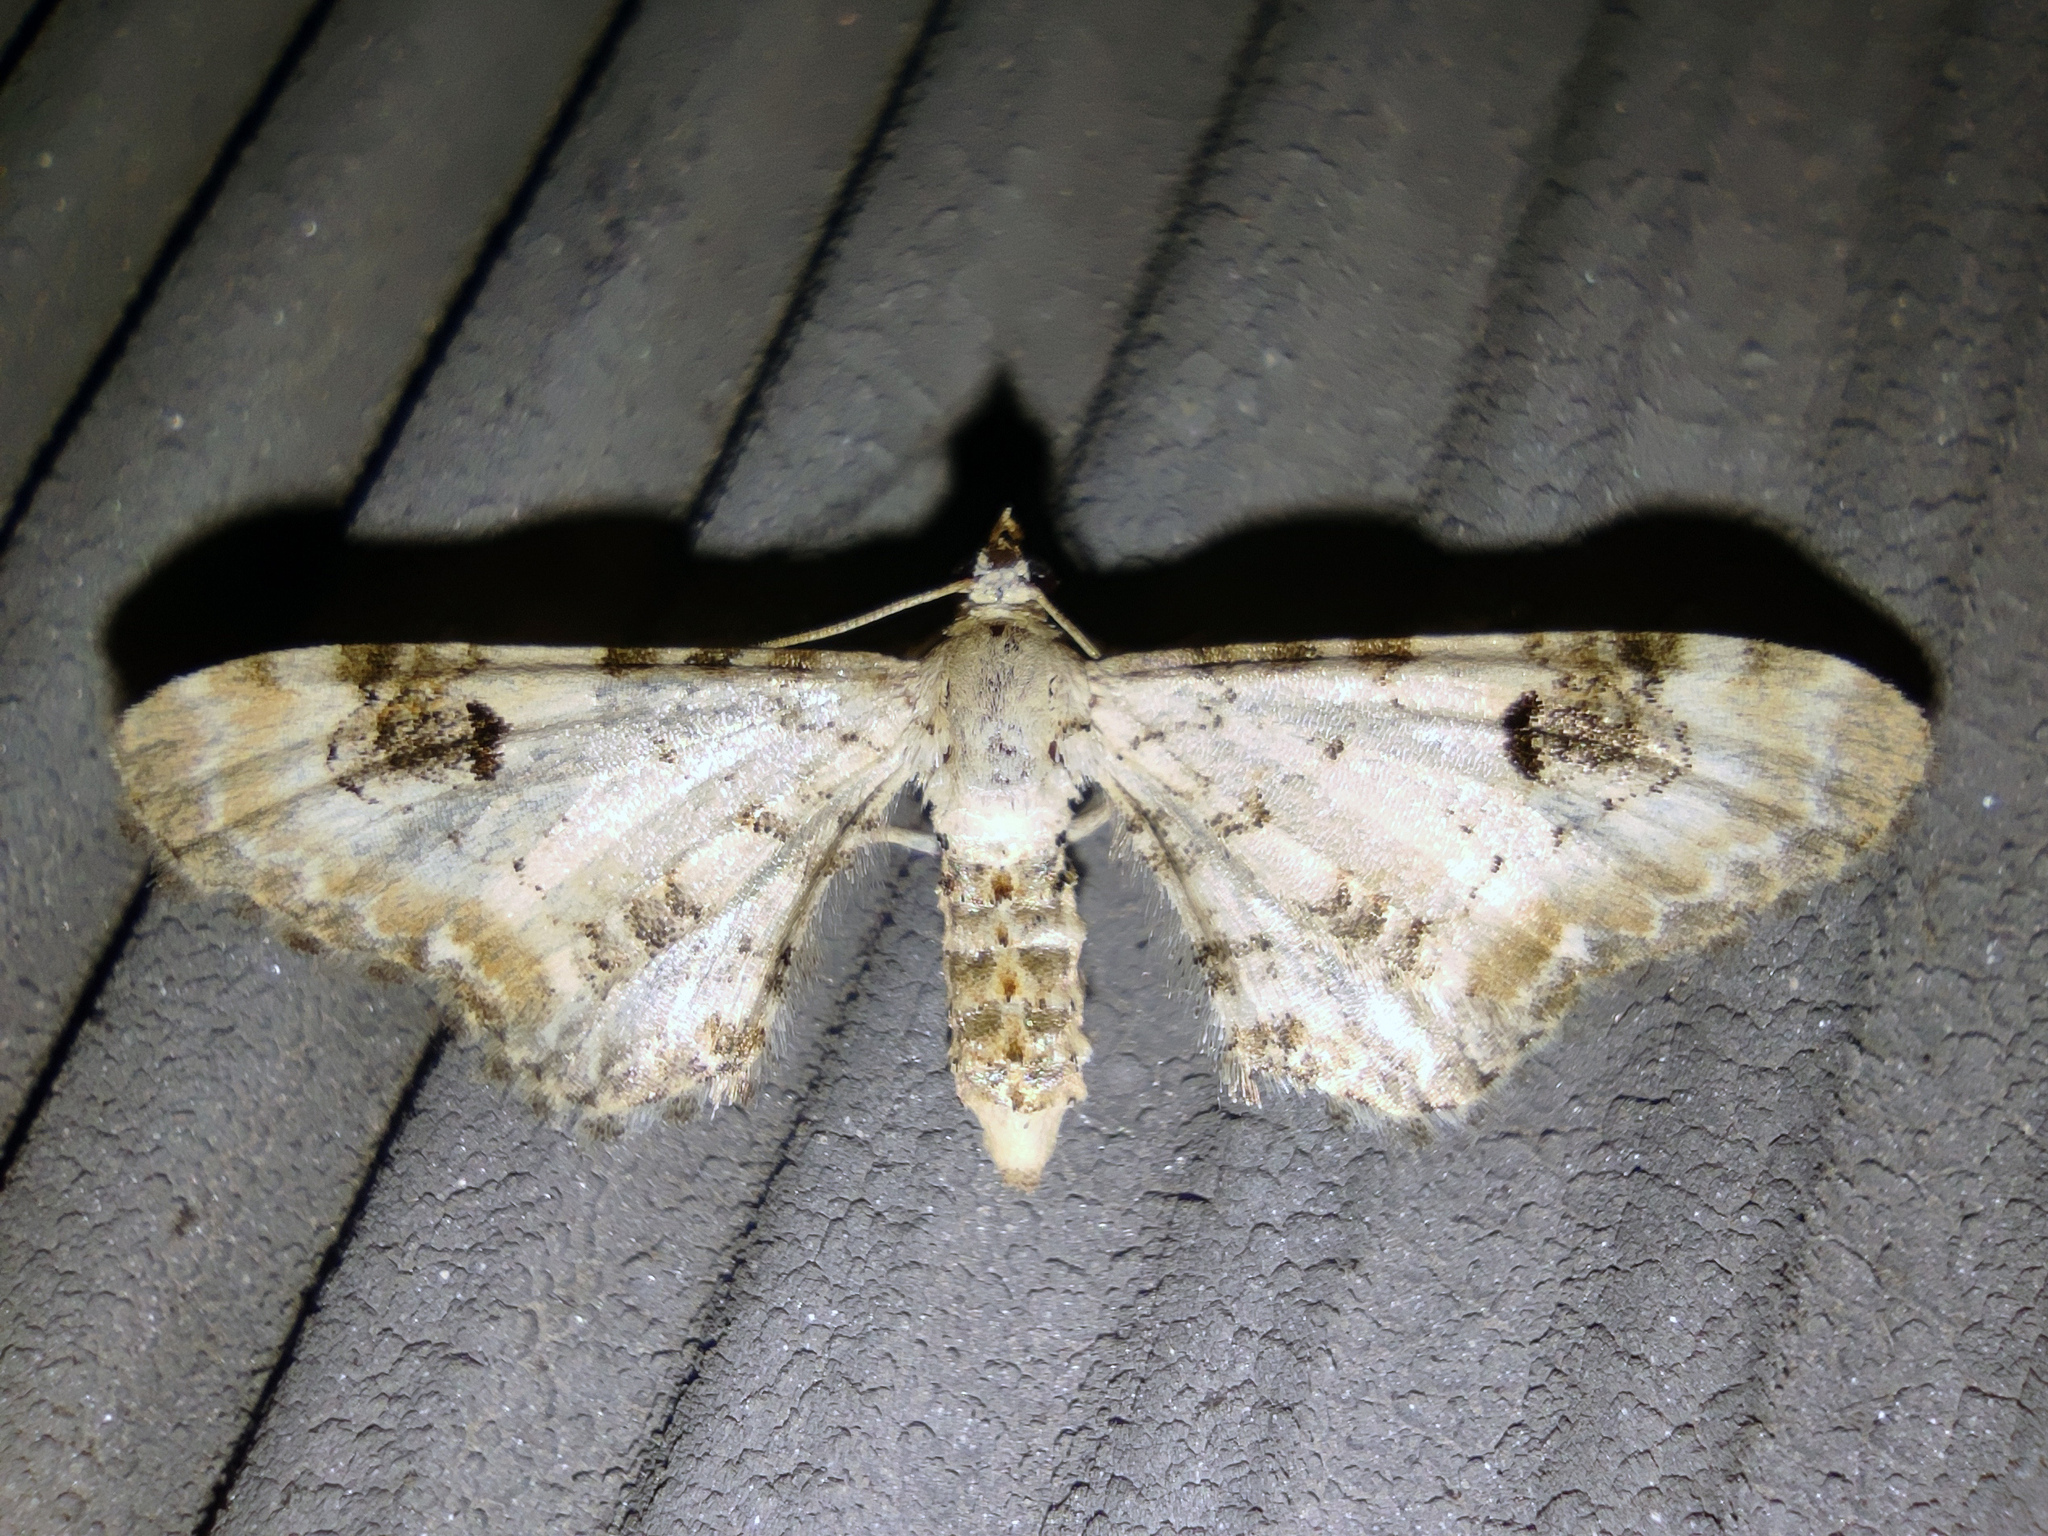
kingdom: Animalia
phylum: Arthropoda
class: Insecta
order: Lepidoptera
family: Geometridae
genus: Eupithecia
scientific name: Eupithecia centaureata
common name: Lime-speck pug
